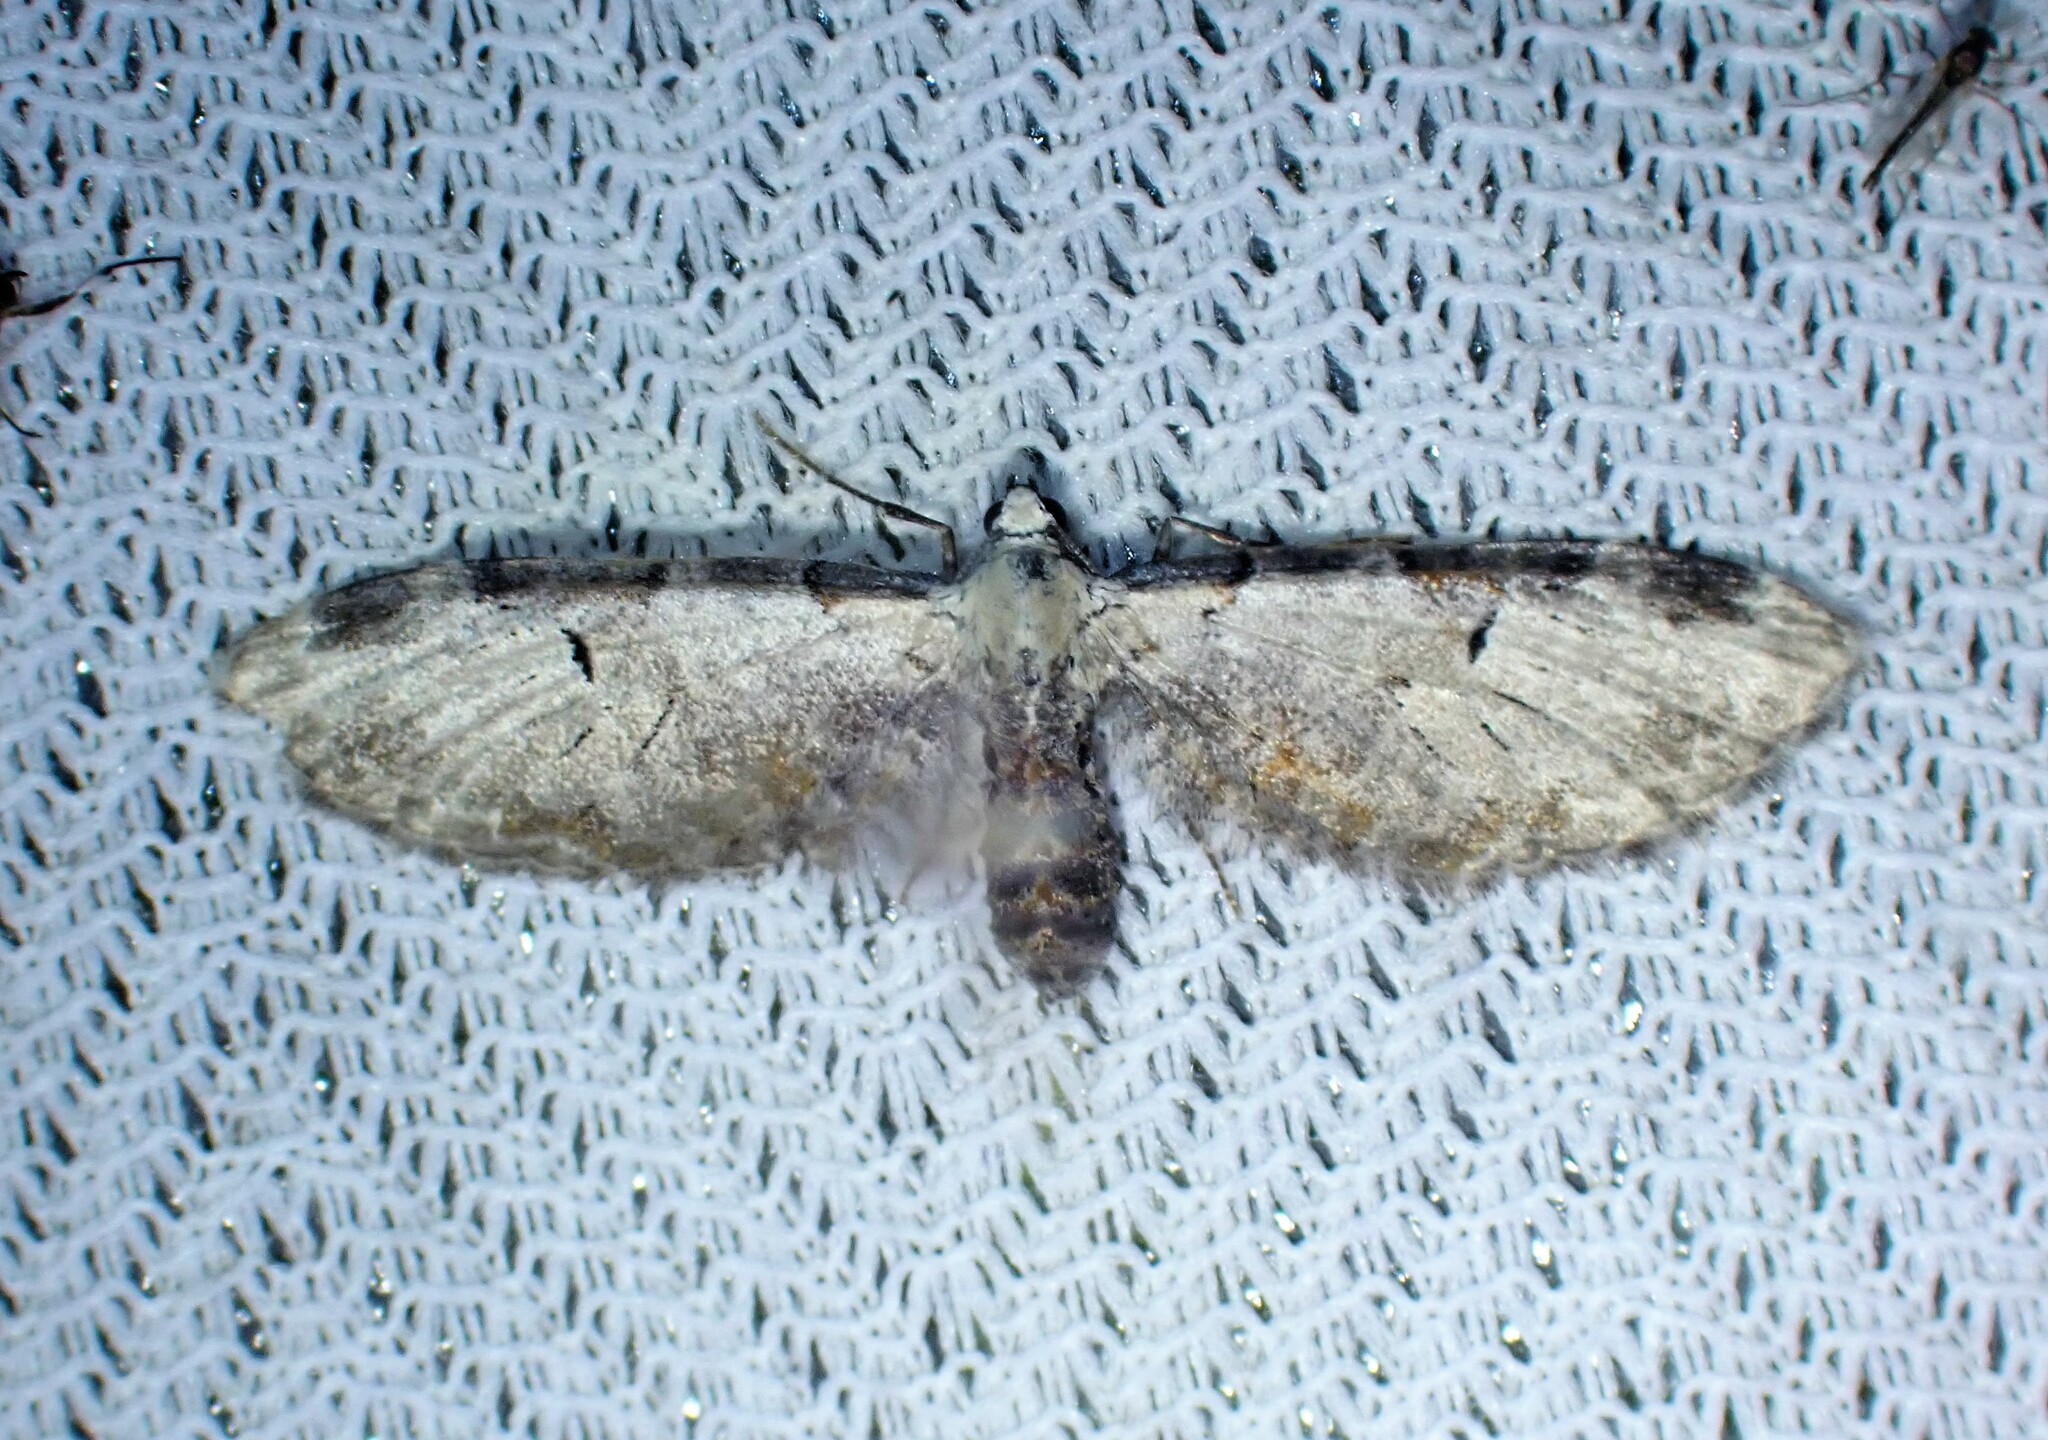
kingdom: Animalia
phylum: Arthropoda
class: Insecta
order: Lepidoptera
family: Geometridae
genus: Eupithecia
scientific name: Eupithecia ravocostaliata
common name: Great varigated pug
